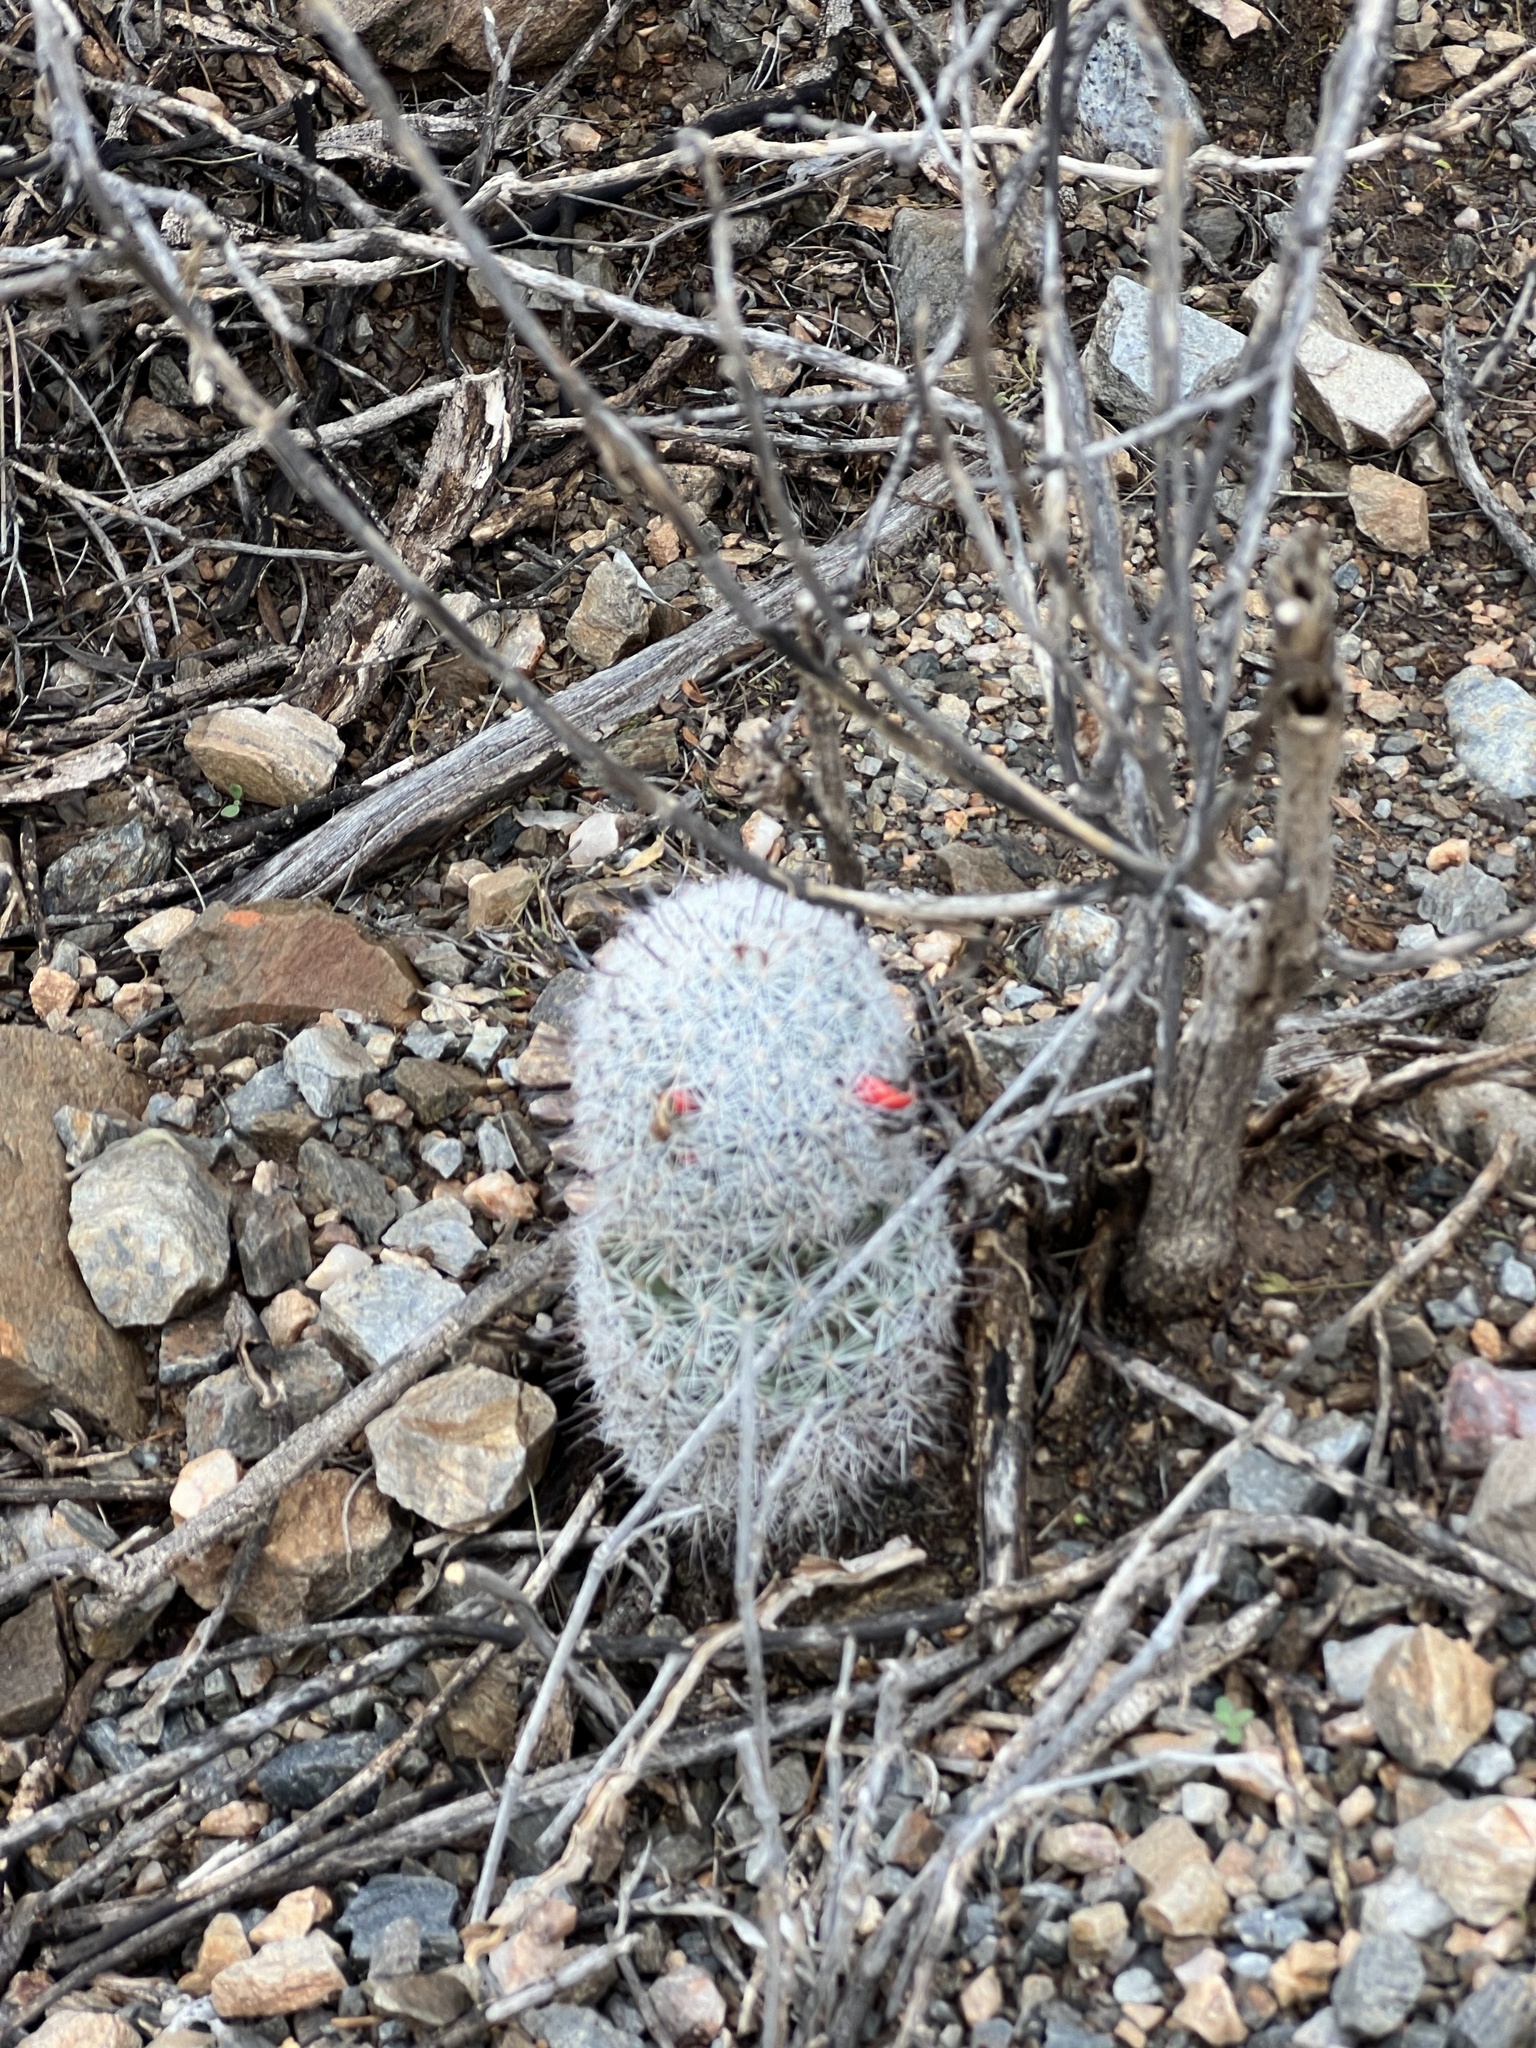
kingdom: Plantae
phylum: Tracheophyta
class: Magnoliopsida
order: Caryophyllales
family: Cactaceae
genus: Cochemiea
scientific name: Cochemiea grahamii
